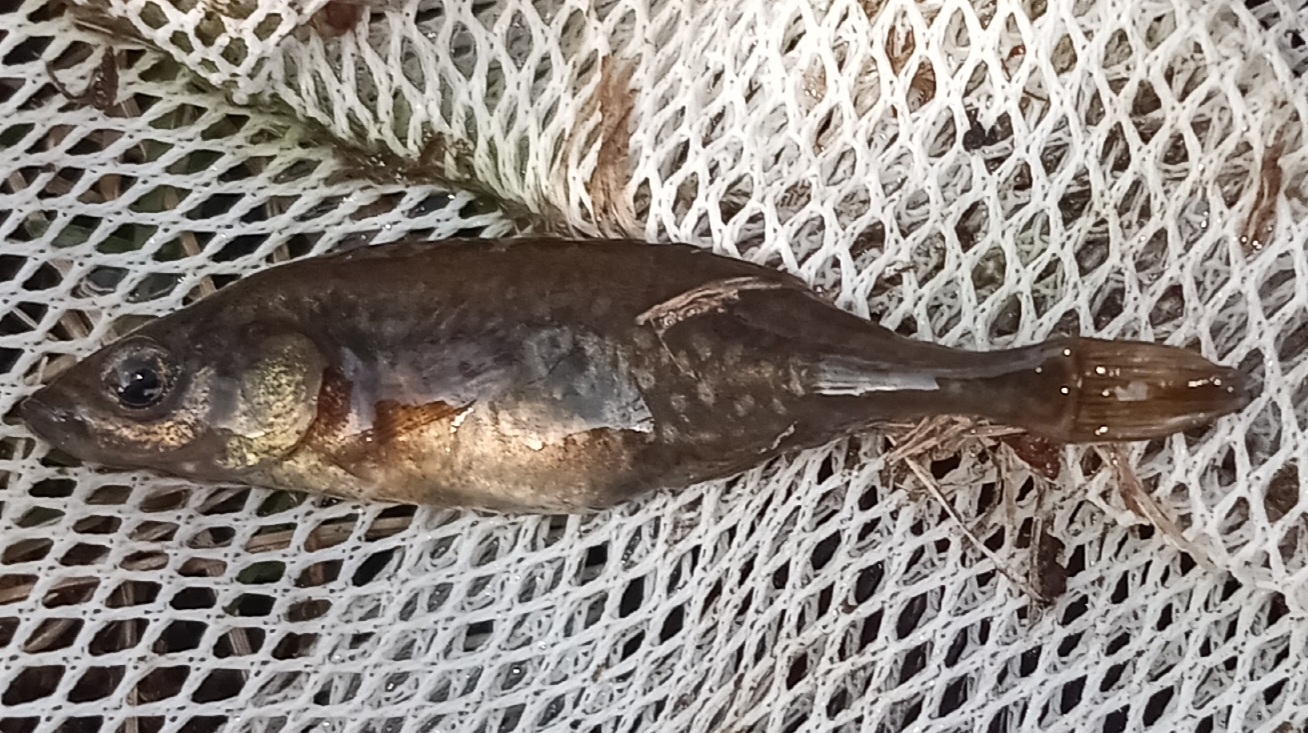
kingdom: Animalia
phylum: Chordata
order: Gasterosteiformes
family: Gasterosteidae
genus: Culaea
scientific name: Culaea inconstans
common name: Brook stickleback
